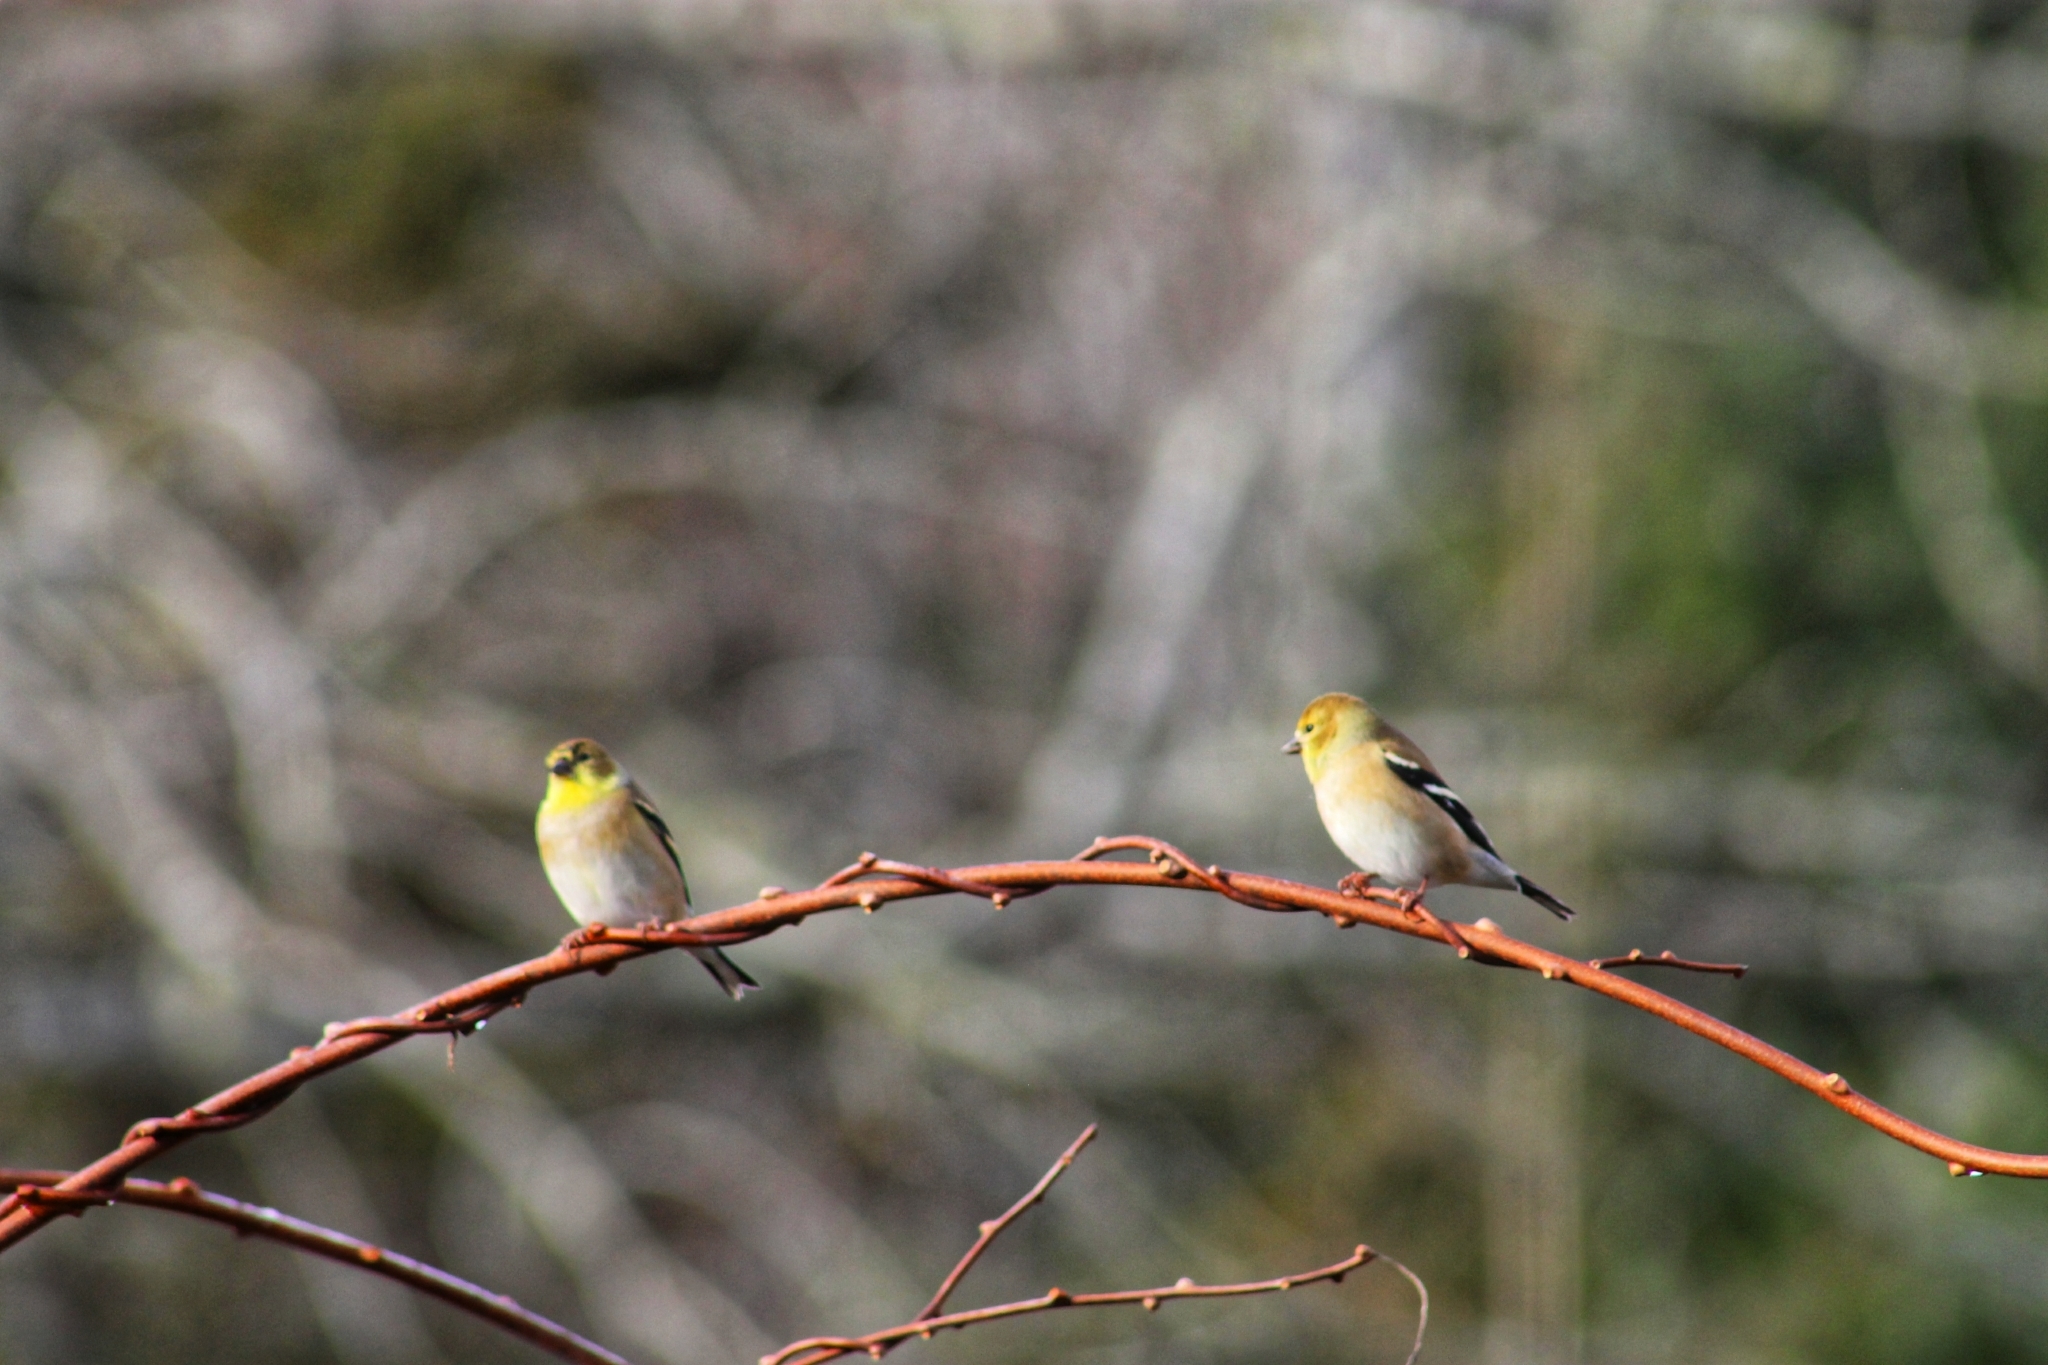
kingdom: Animalia
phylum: Chordata
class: Aves
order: Passeriformes
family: Fringillidae
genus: Spinus
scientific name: Spinus tristis
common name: American goldfinch
